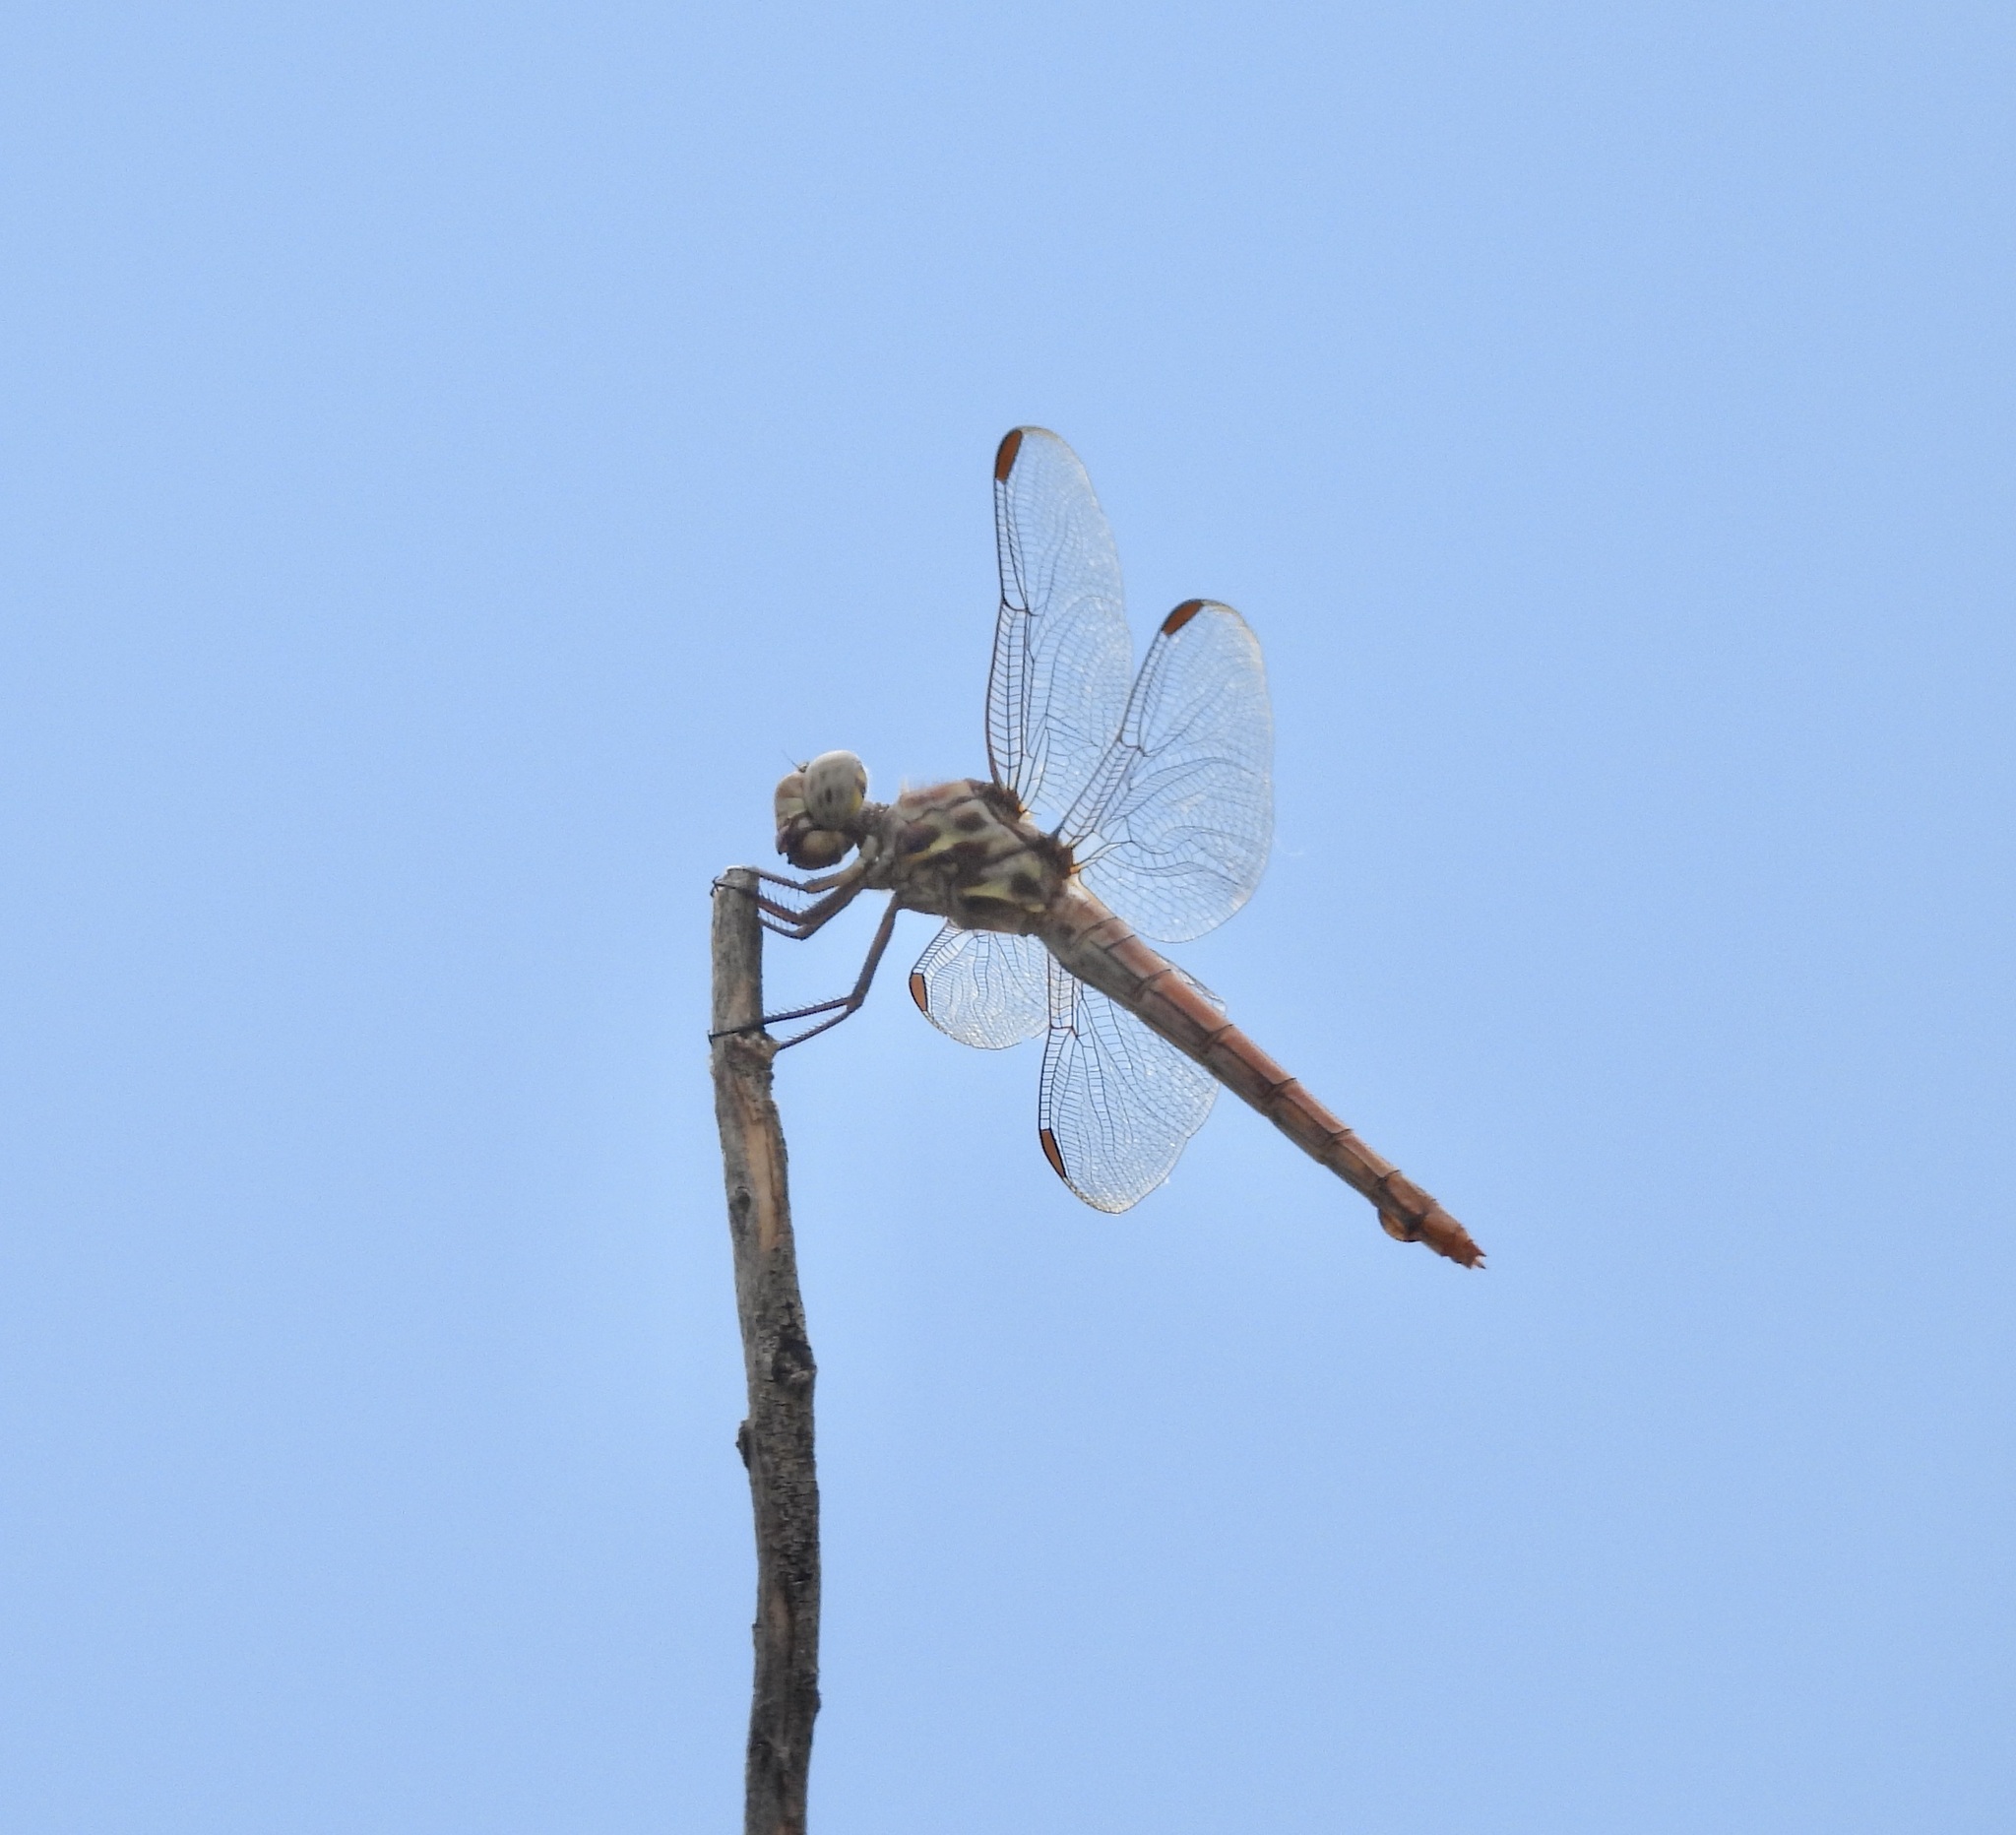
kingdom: Animalia
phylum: Arthropoda
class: Insecta
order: Odonata
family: Libellulidae
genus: Orthemis
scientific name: Orthemis ferruginea
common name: Roseate skimmer
